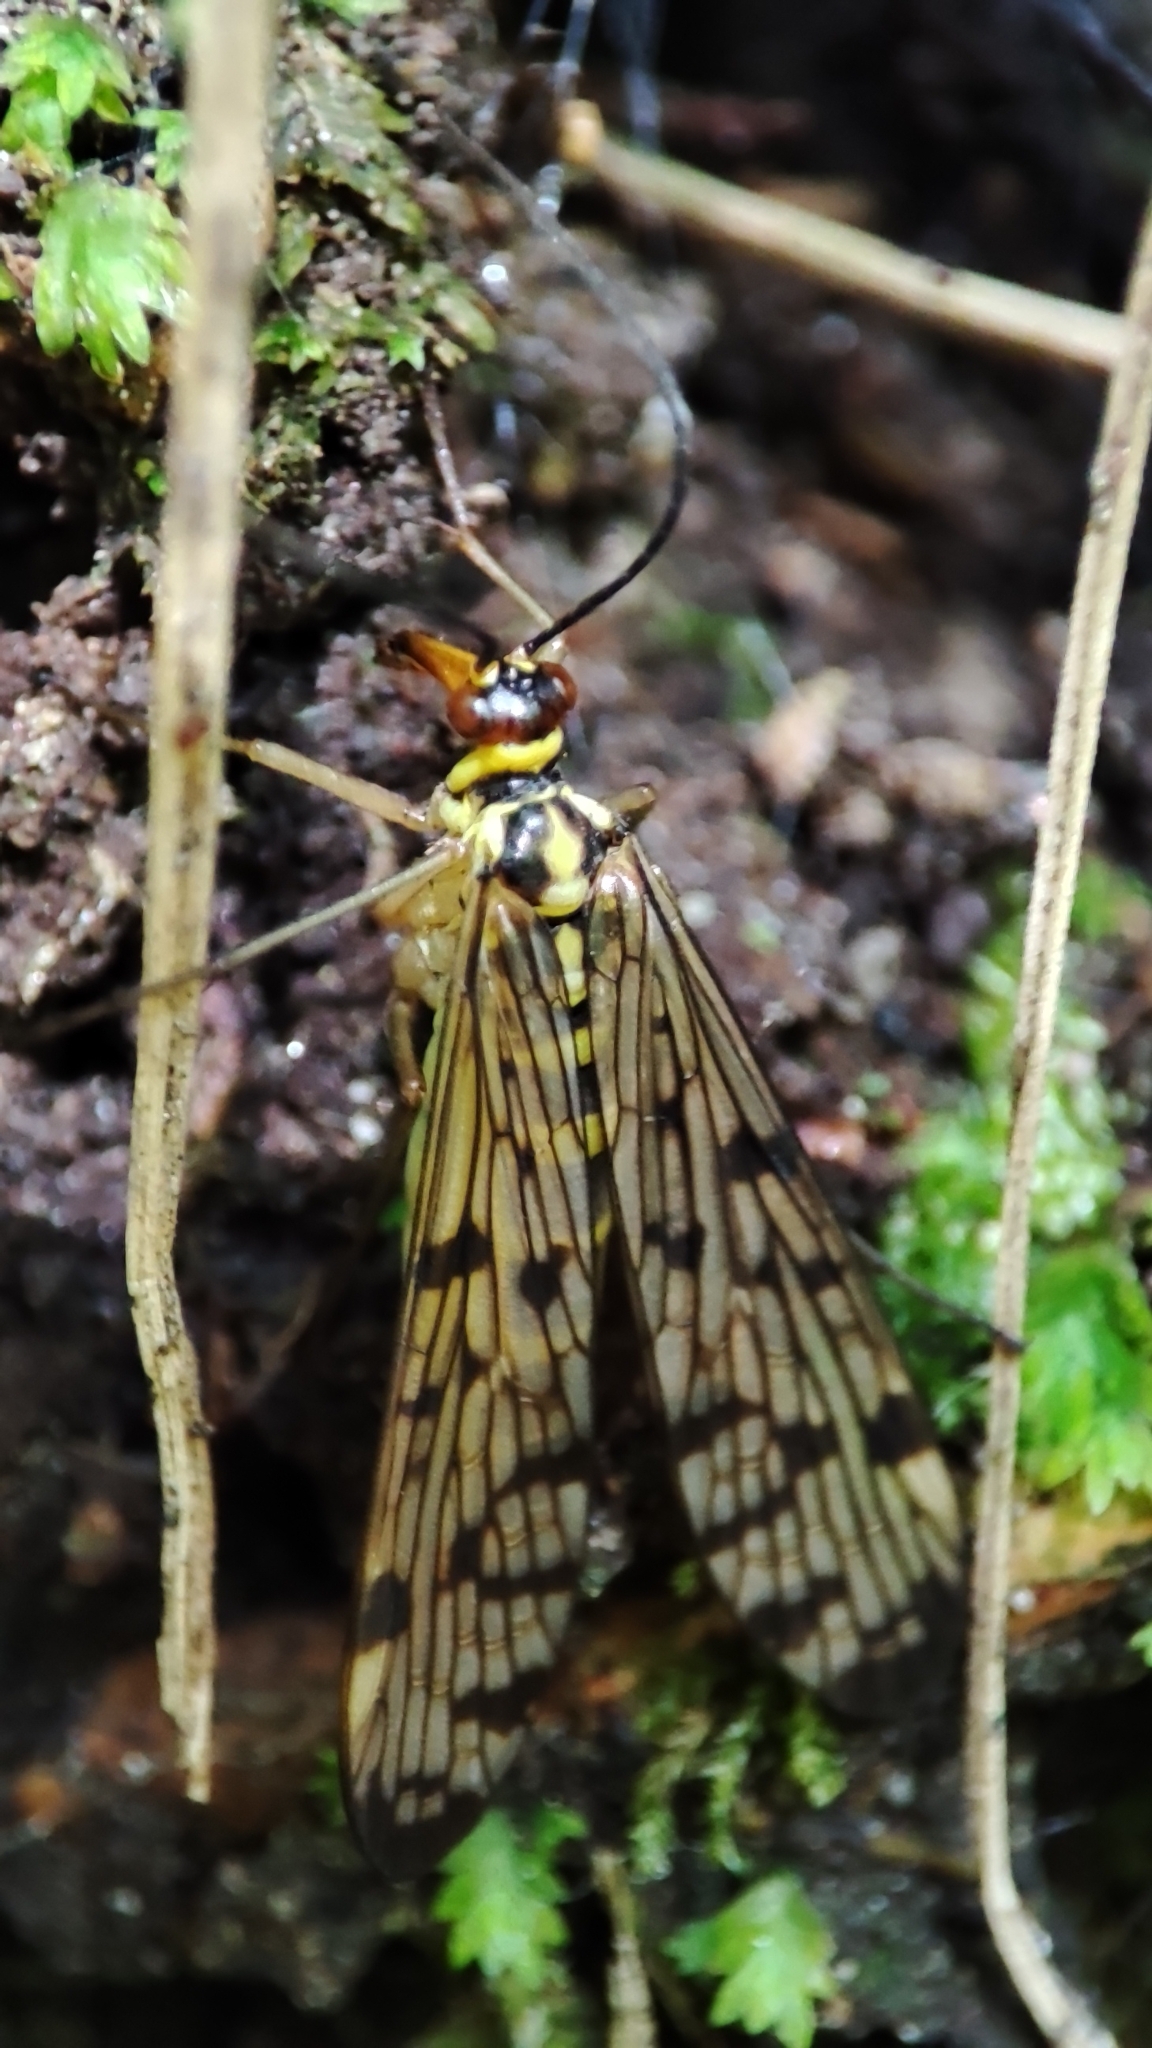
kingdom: Animalia
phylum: Arthropoda
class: Insecta
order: Mecoptera
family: Panorpidae
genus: Panorpa
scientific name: Panorpa germanica
